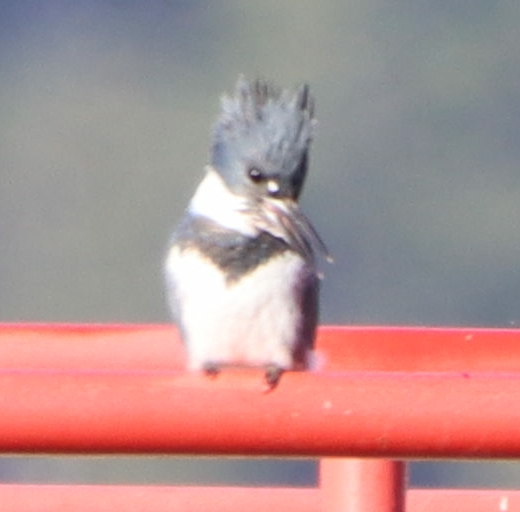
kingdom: Animalia
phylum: Chordata
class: Aves
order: Coraciiformes
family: Alcedinidae
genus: Megaceryle
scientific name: Megaceryle alcyon
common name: Belted kingfisher
